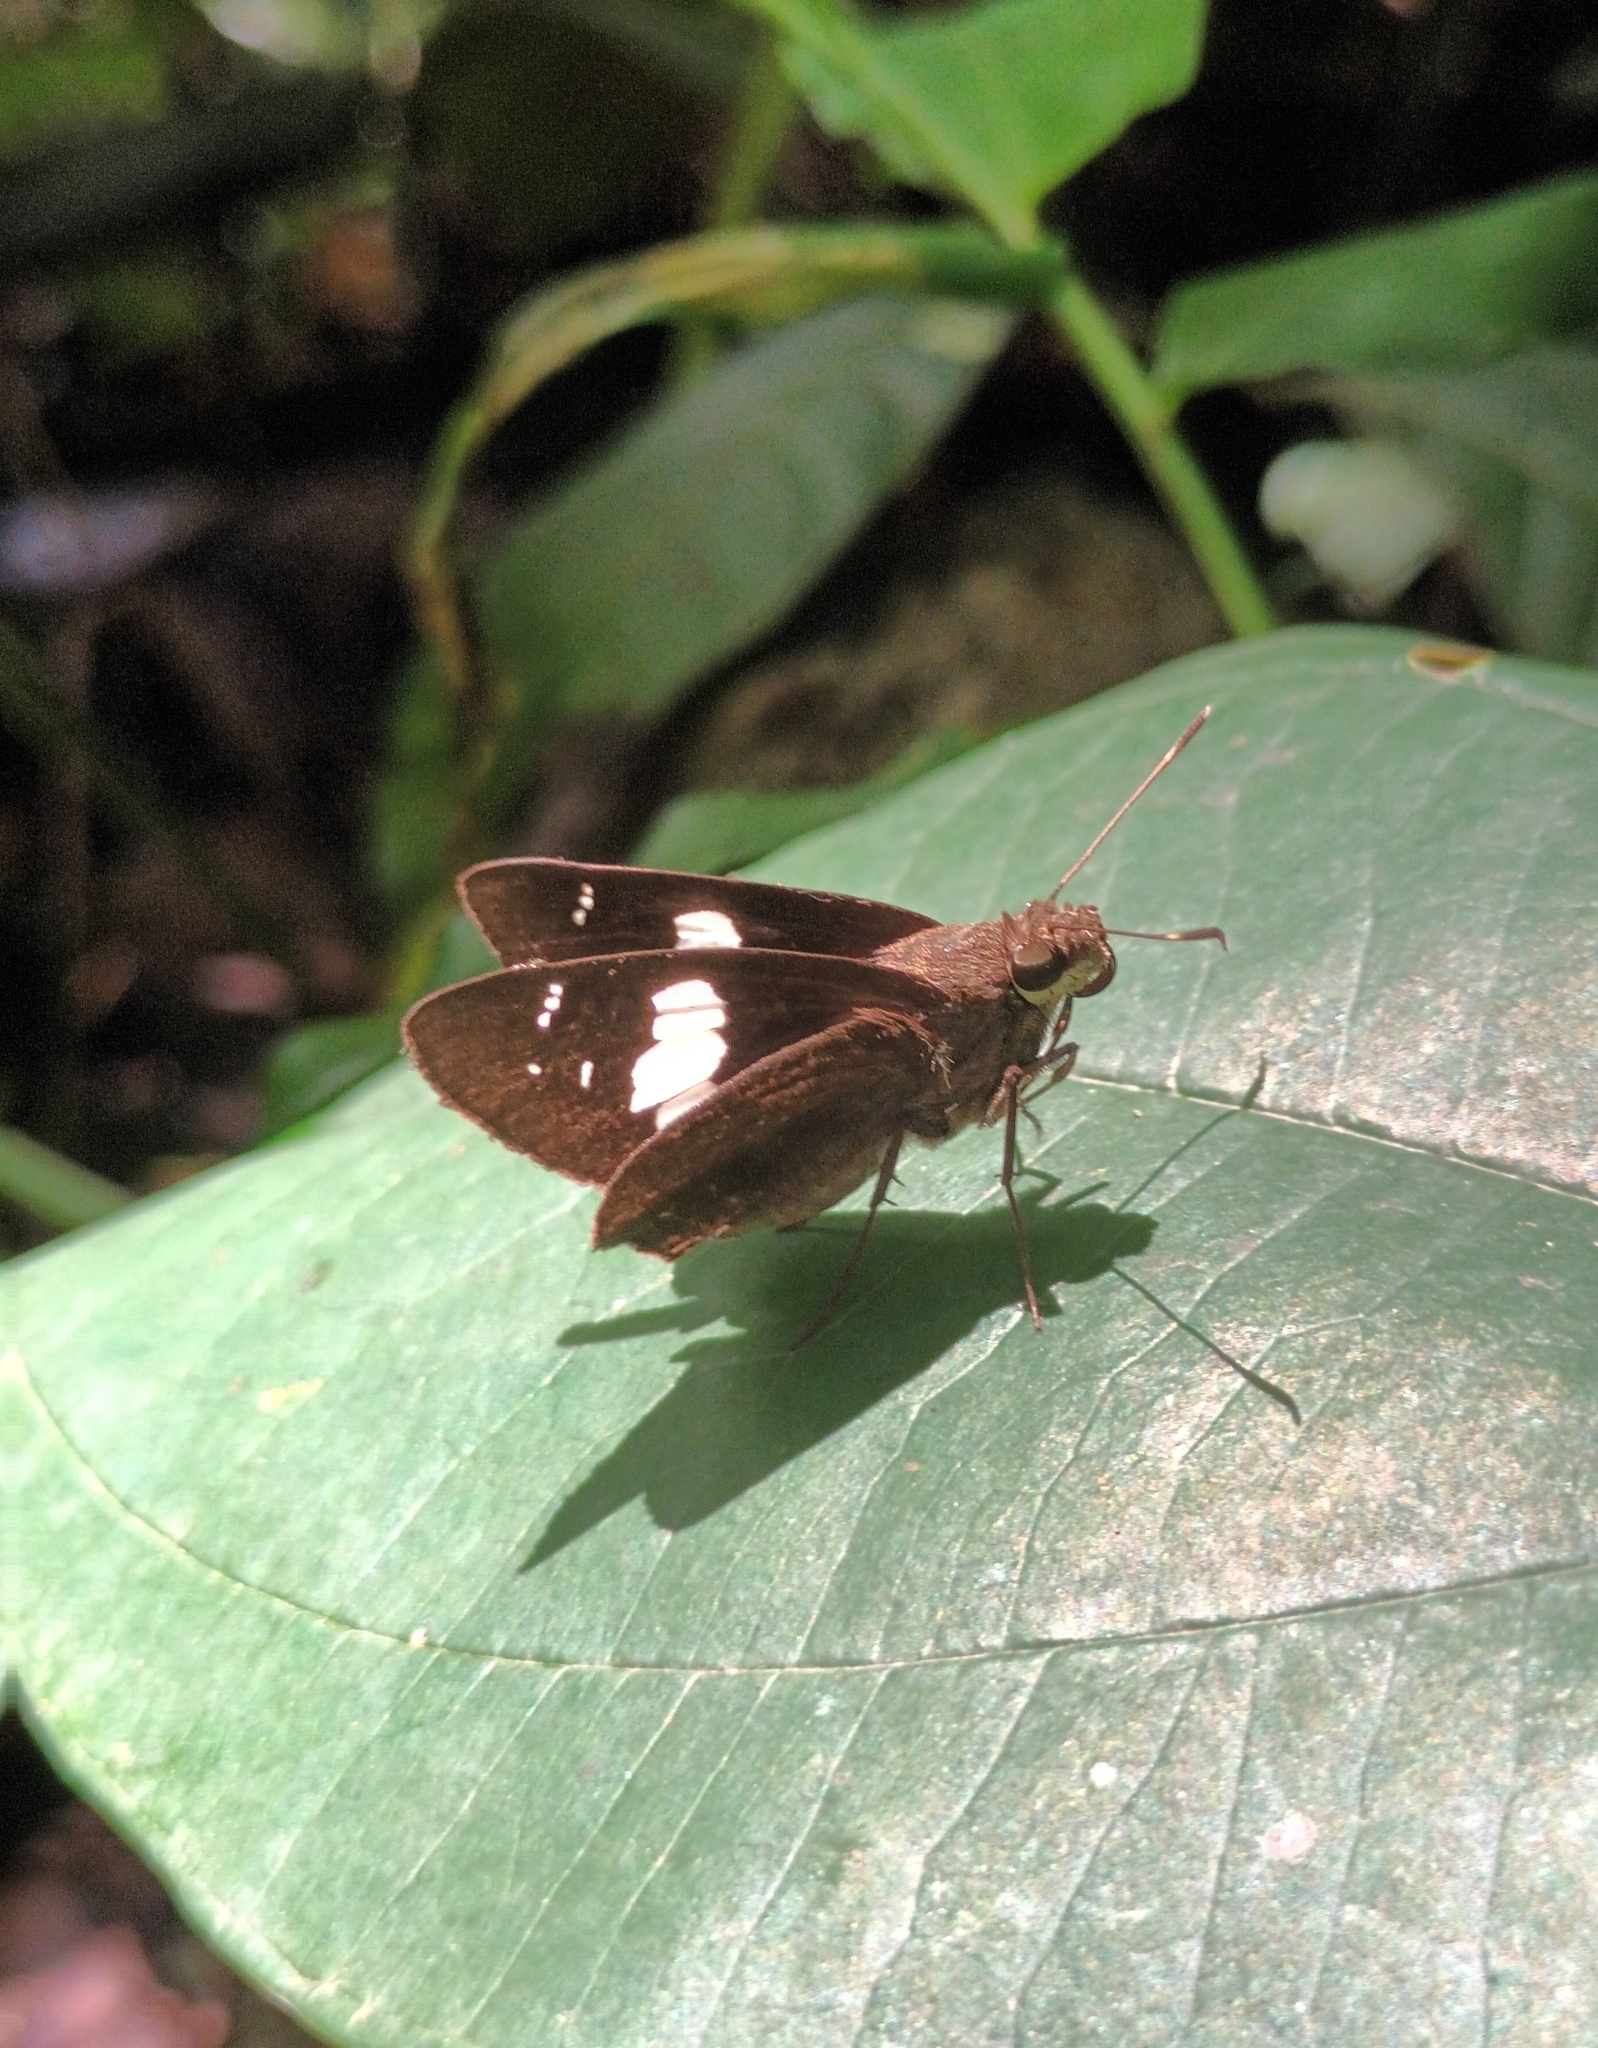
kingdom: Animalia
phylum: Arthropoda
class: Insecta
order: Lepidoptera
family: Hesperiidae
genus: Notocrypta
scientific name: Notocrypta curvifascia
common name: Restricted demon
